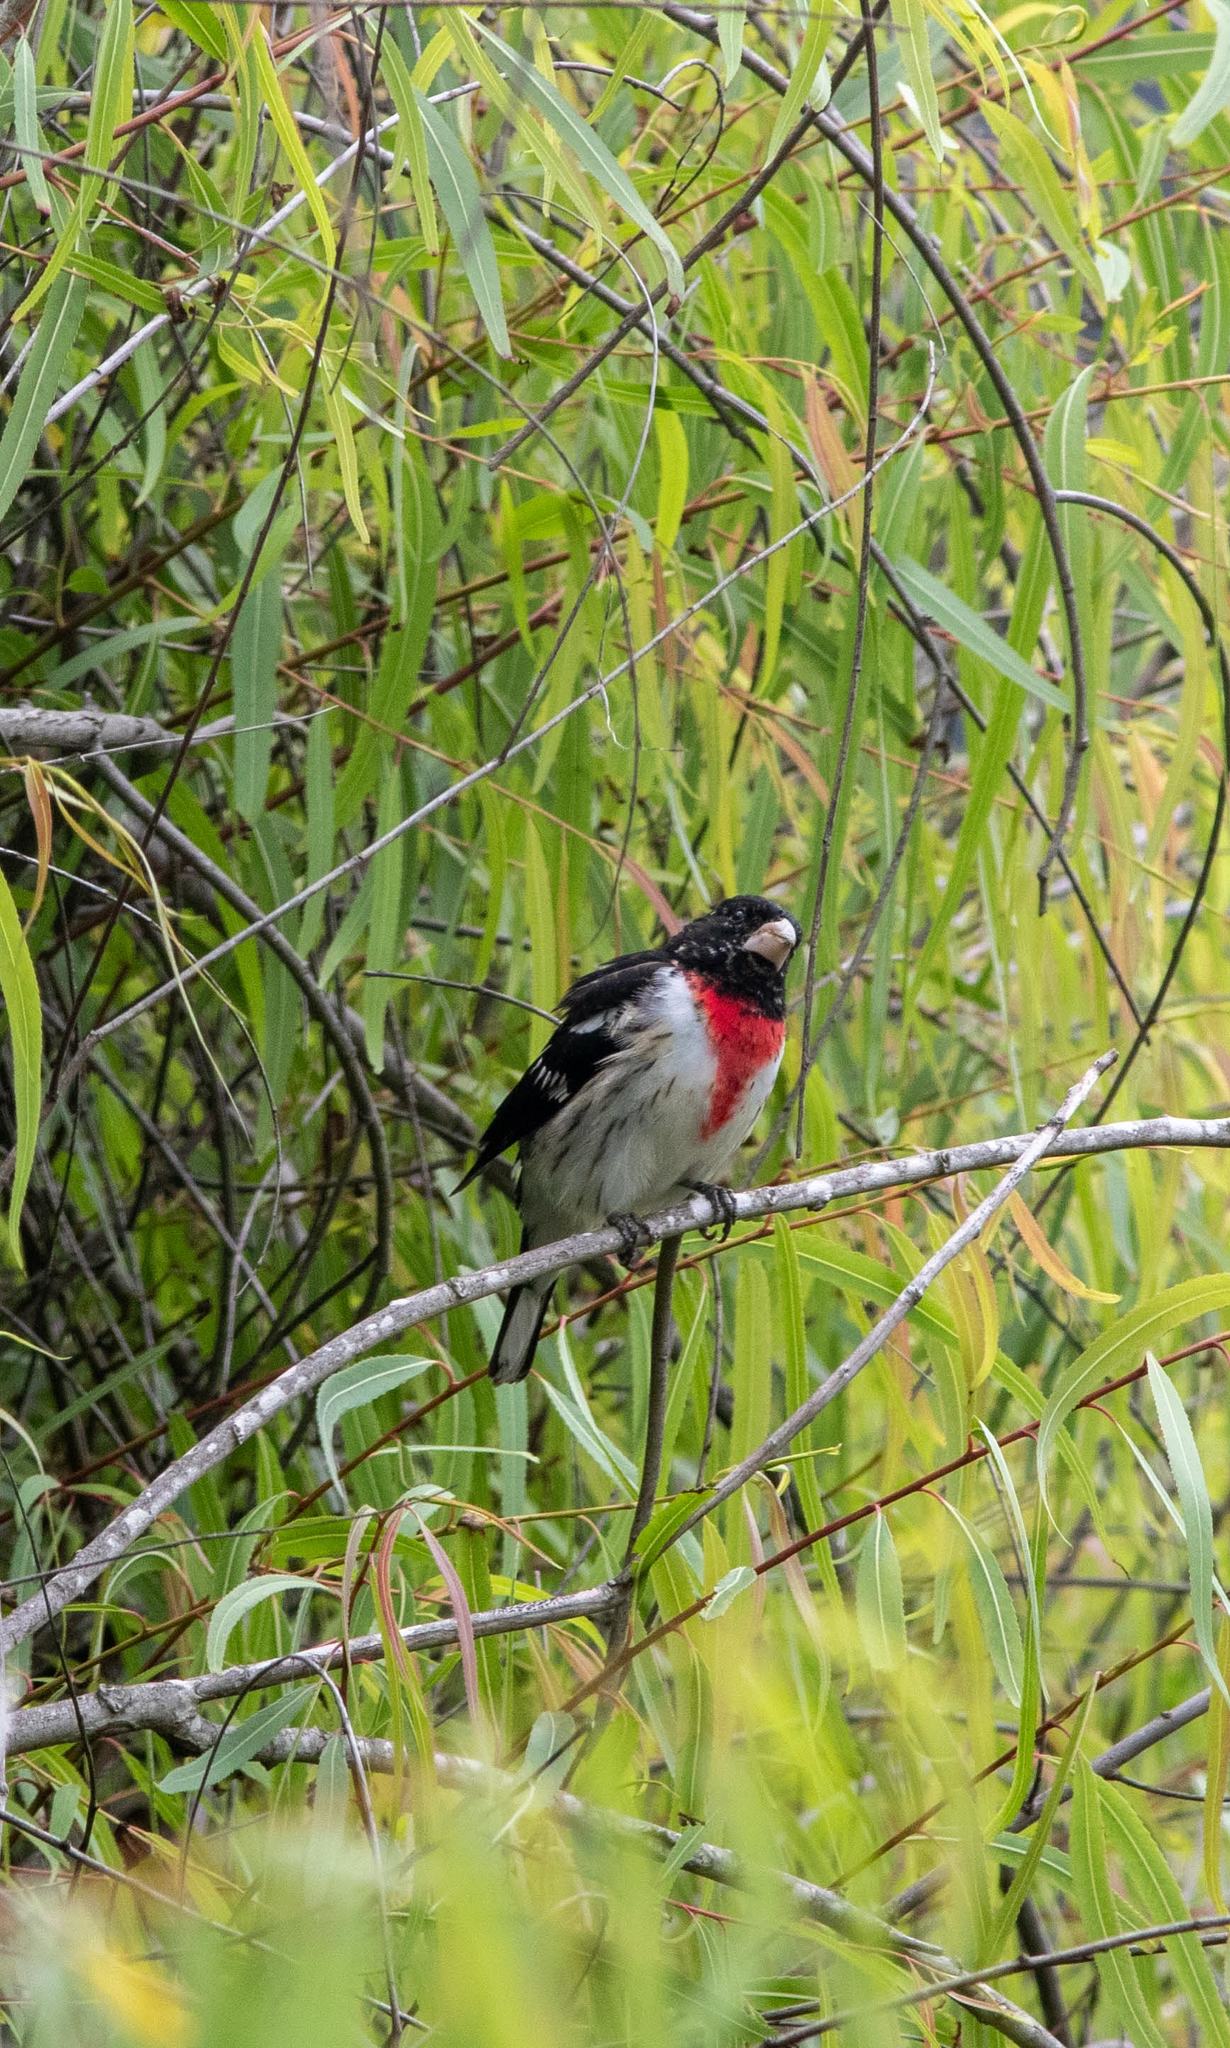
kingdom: Animalia
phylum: Chordata
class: Aves
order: Passeriformes
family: Cardinalidae
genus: Pheucticus
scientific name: Pheucticus ludovicianus
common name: Rose-breasted grosbeak
